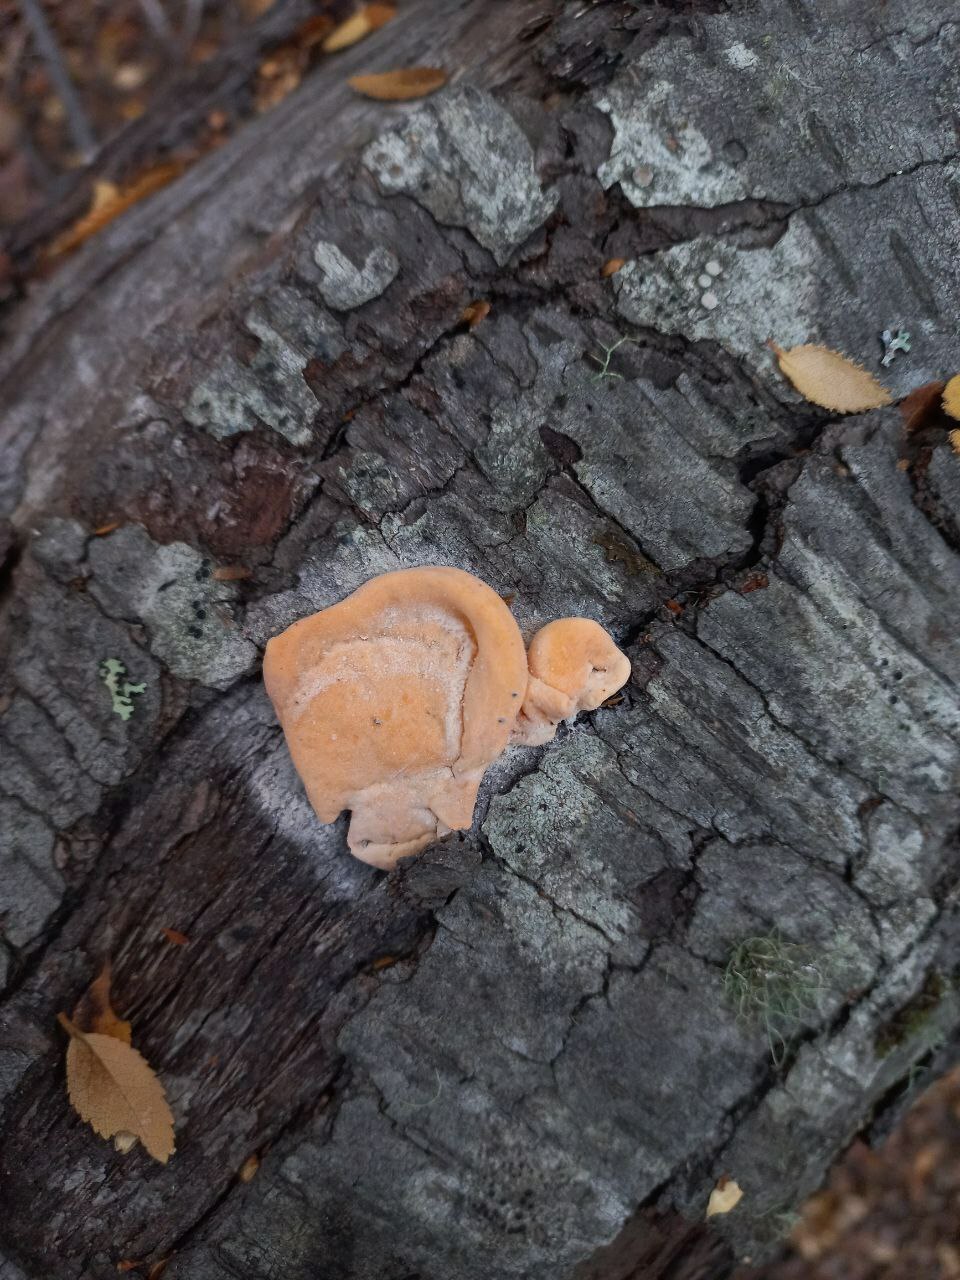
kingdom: Fungi
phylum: Basidiomycota
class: Agaricomycetes
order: Russulales
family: Stereaceae
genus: Aleurodiscus
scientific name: Aleurodiscus vitellinus
